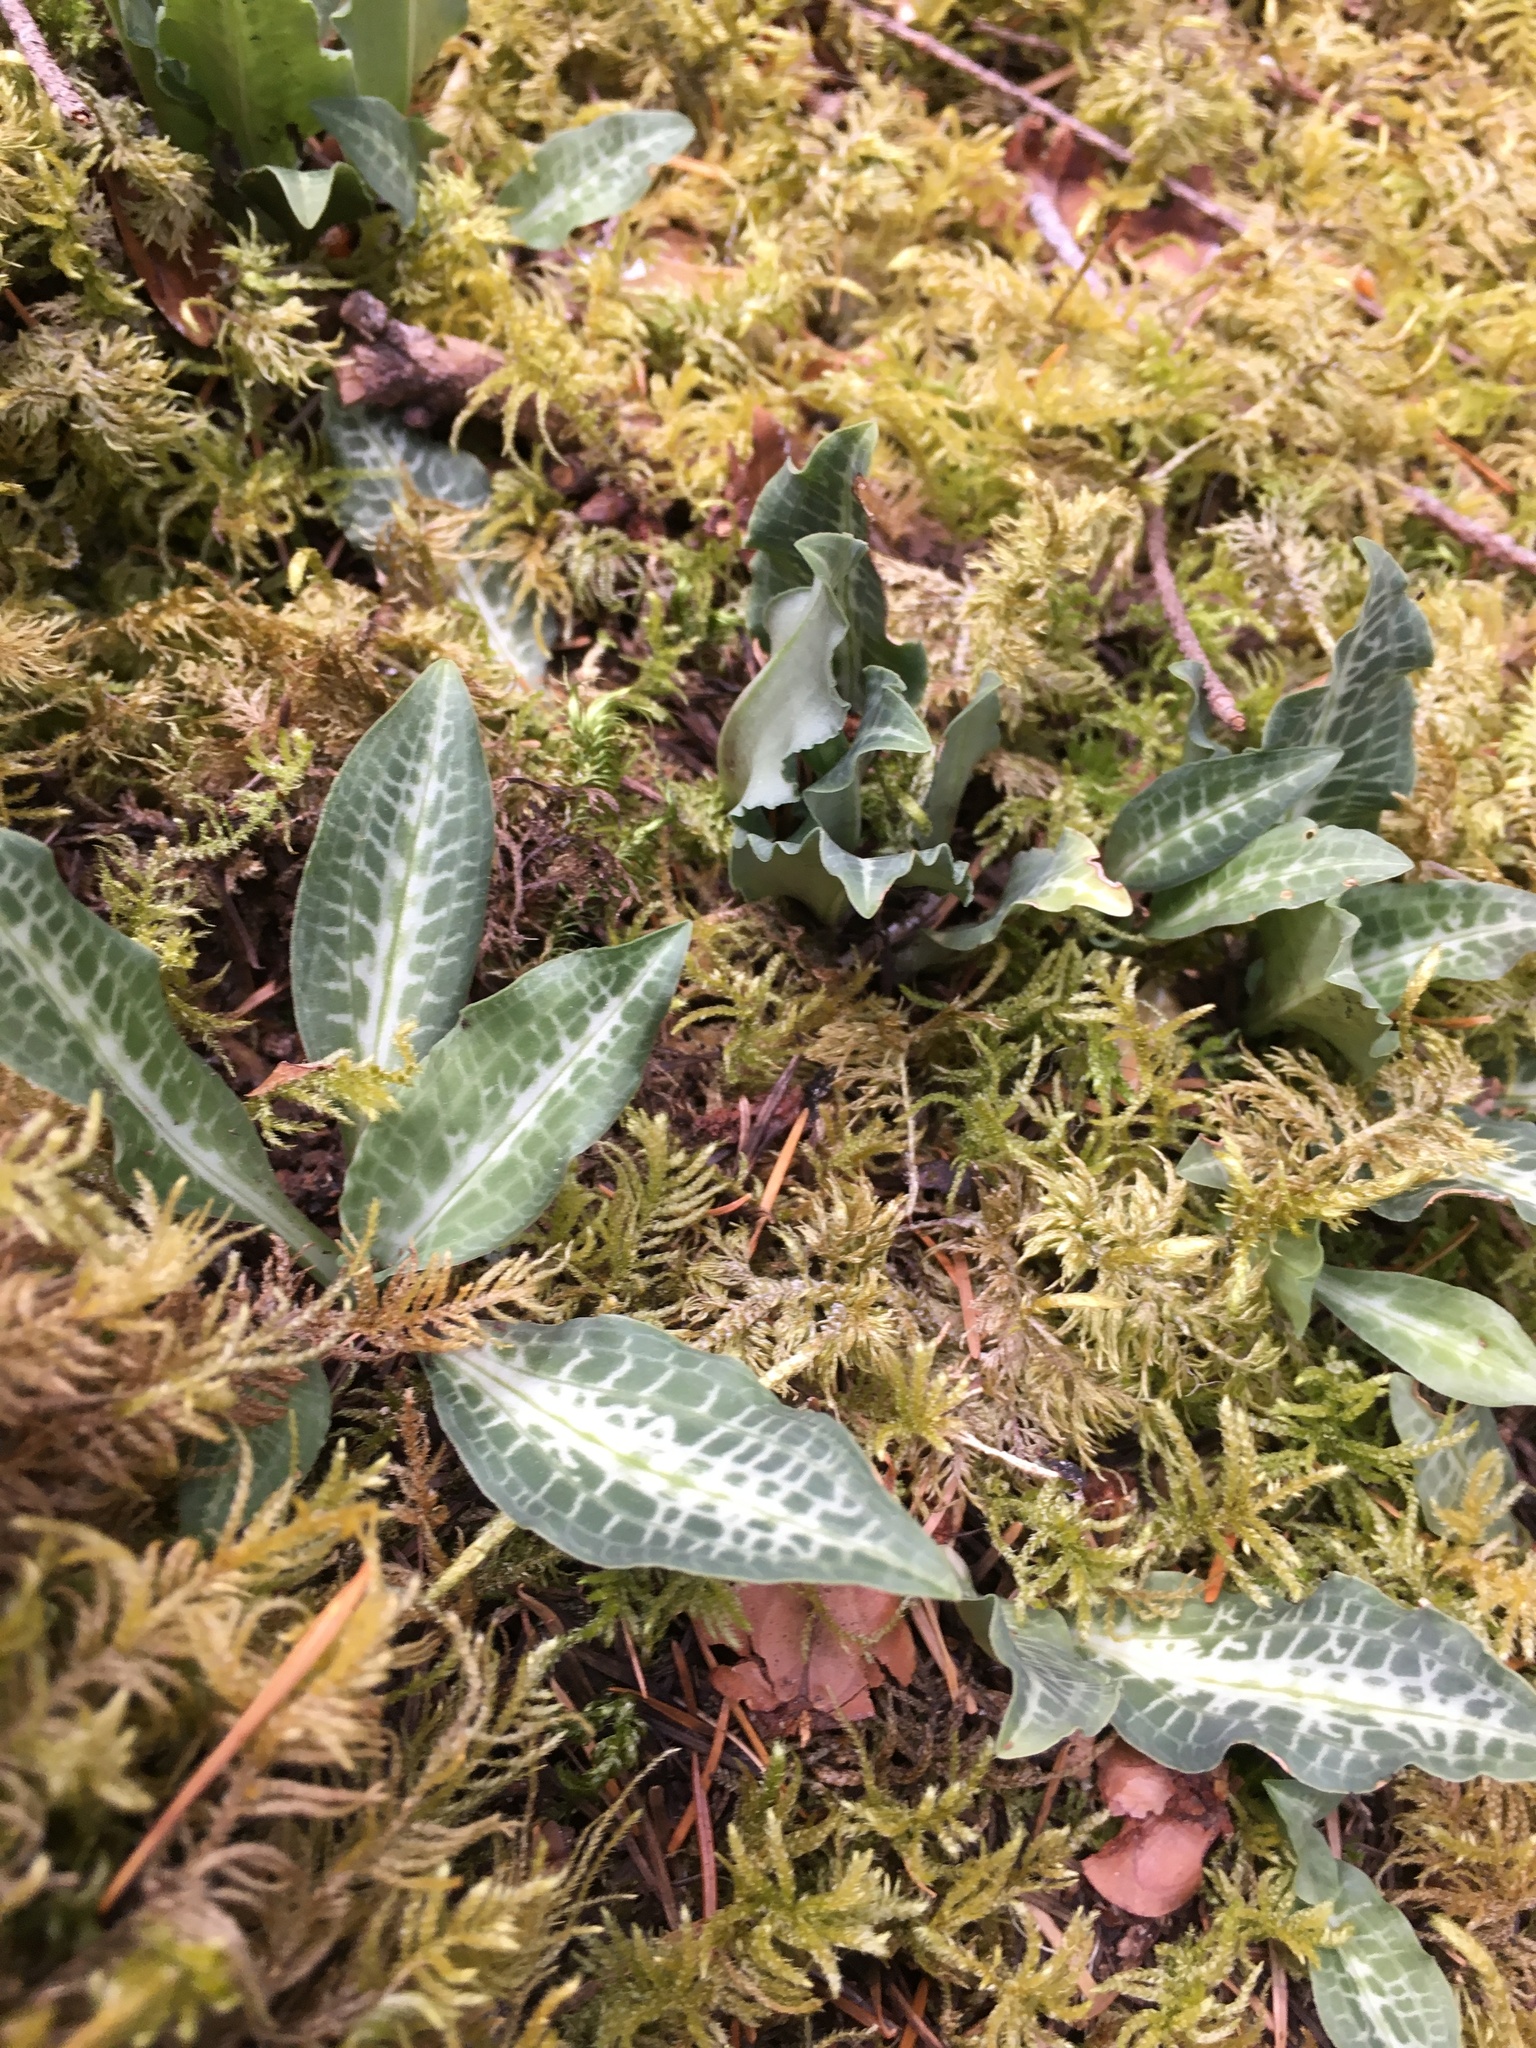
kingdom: Plantae
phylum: Tracheophyta
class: Liliopsida
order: Asparagales
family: Orchidaceae
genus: Goodyera
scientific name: Goodyera oblongifolia
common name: Giant rattlesnake-plantain
